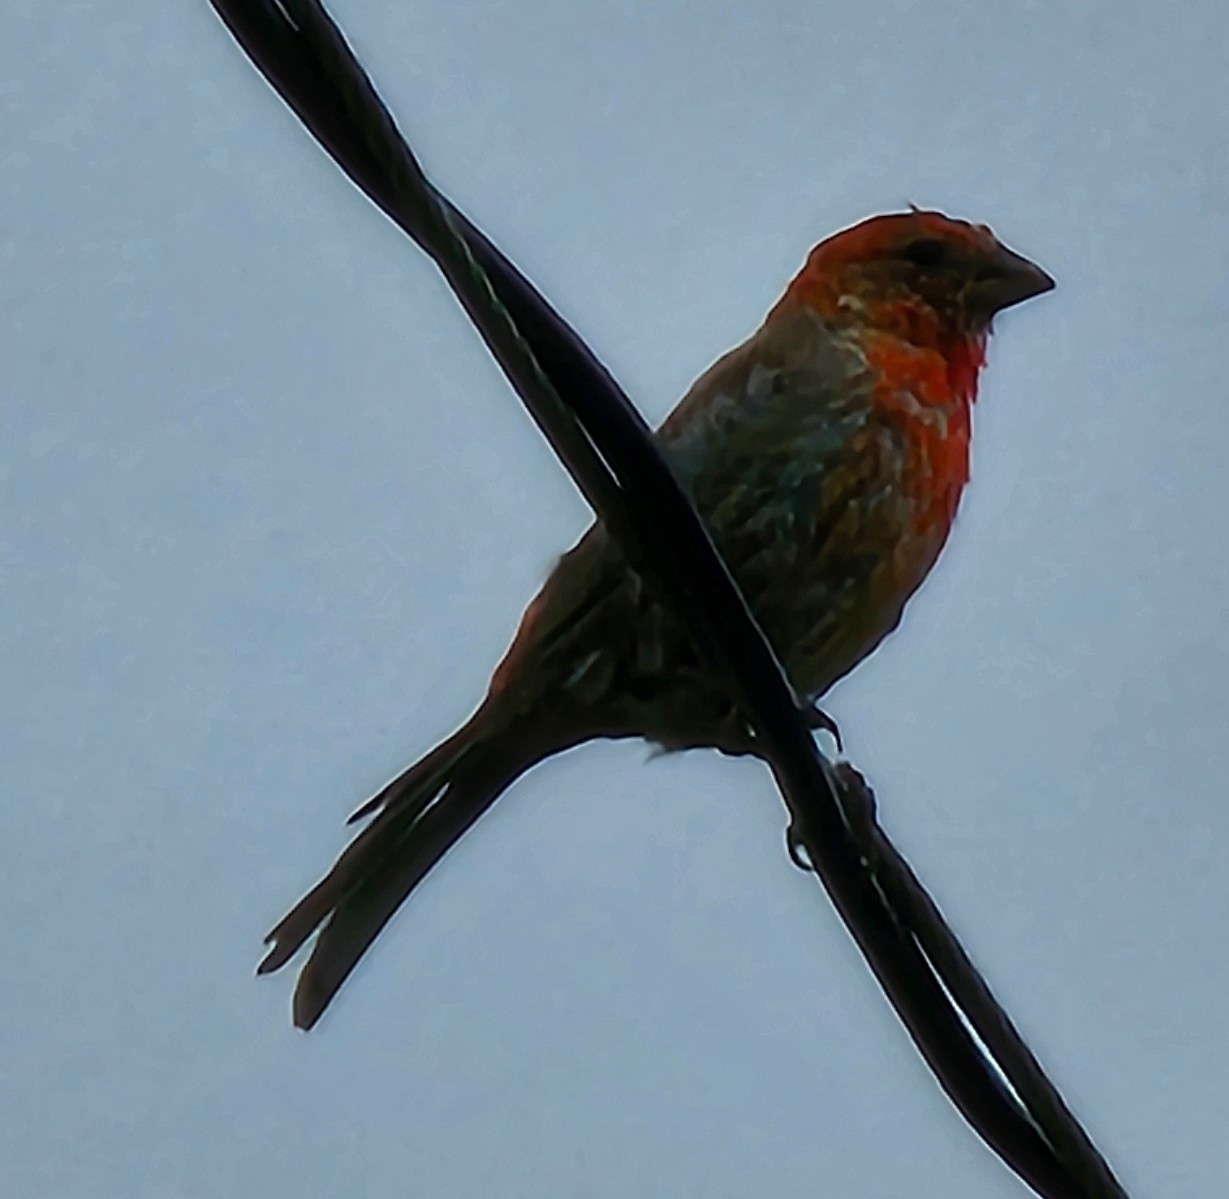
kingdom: Animalia
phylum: Chordata
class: Aves
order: Passeriformes
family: Fringillidae
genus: Haemorhous
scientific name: Haemorhous mexicanus
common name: House finch
